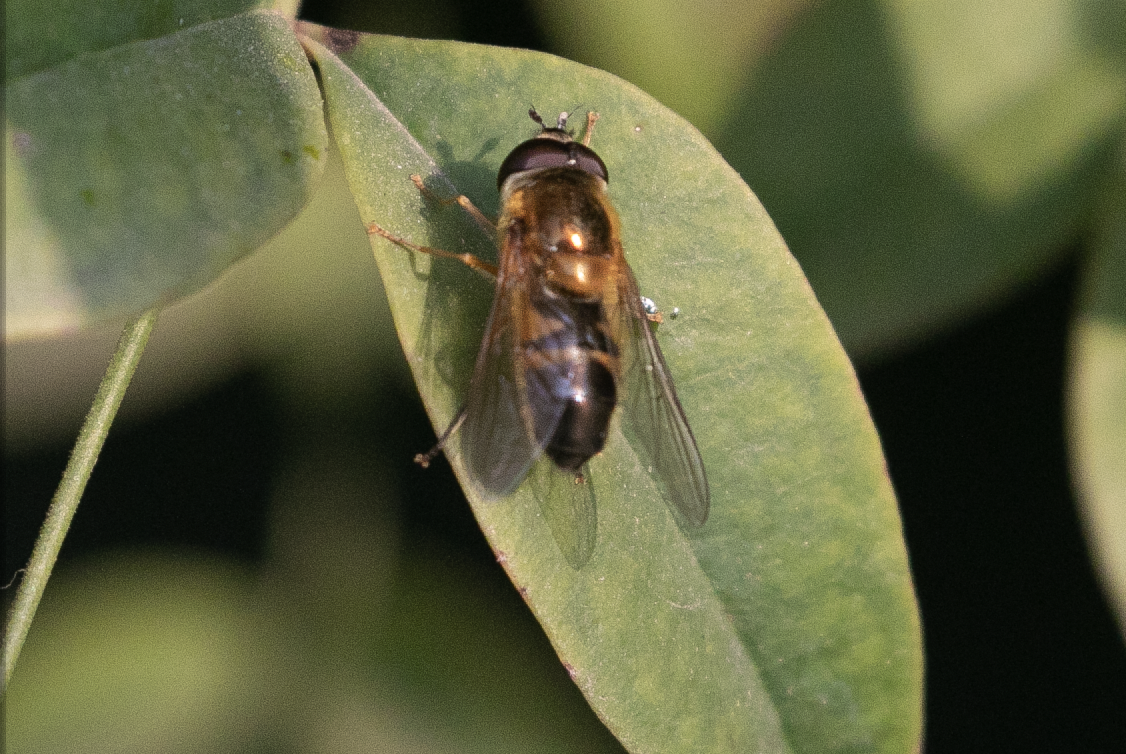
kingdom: Animalia
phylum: Arthropoda
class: Insecta
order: Diptera
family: Syrphidae
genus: Epistrophe
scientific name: Epistrophe eligans
